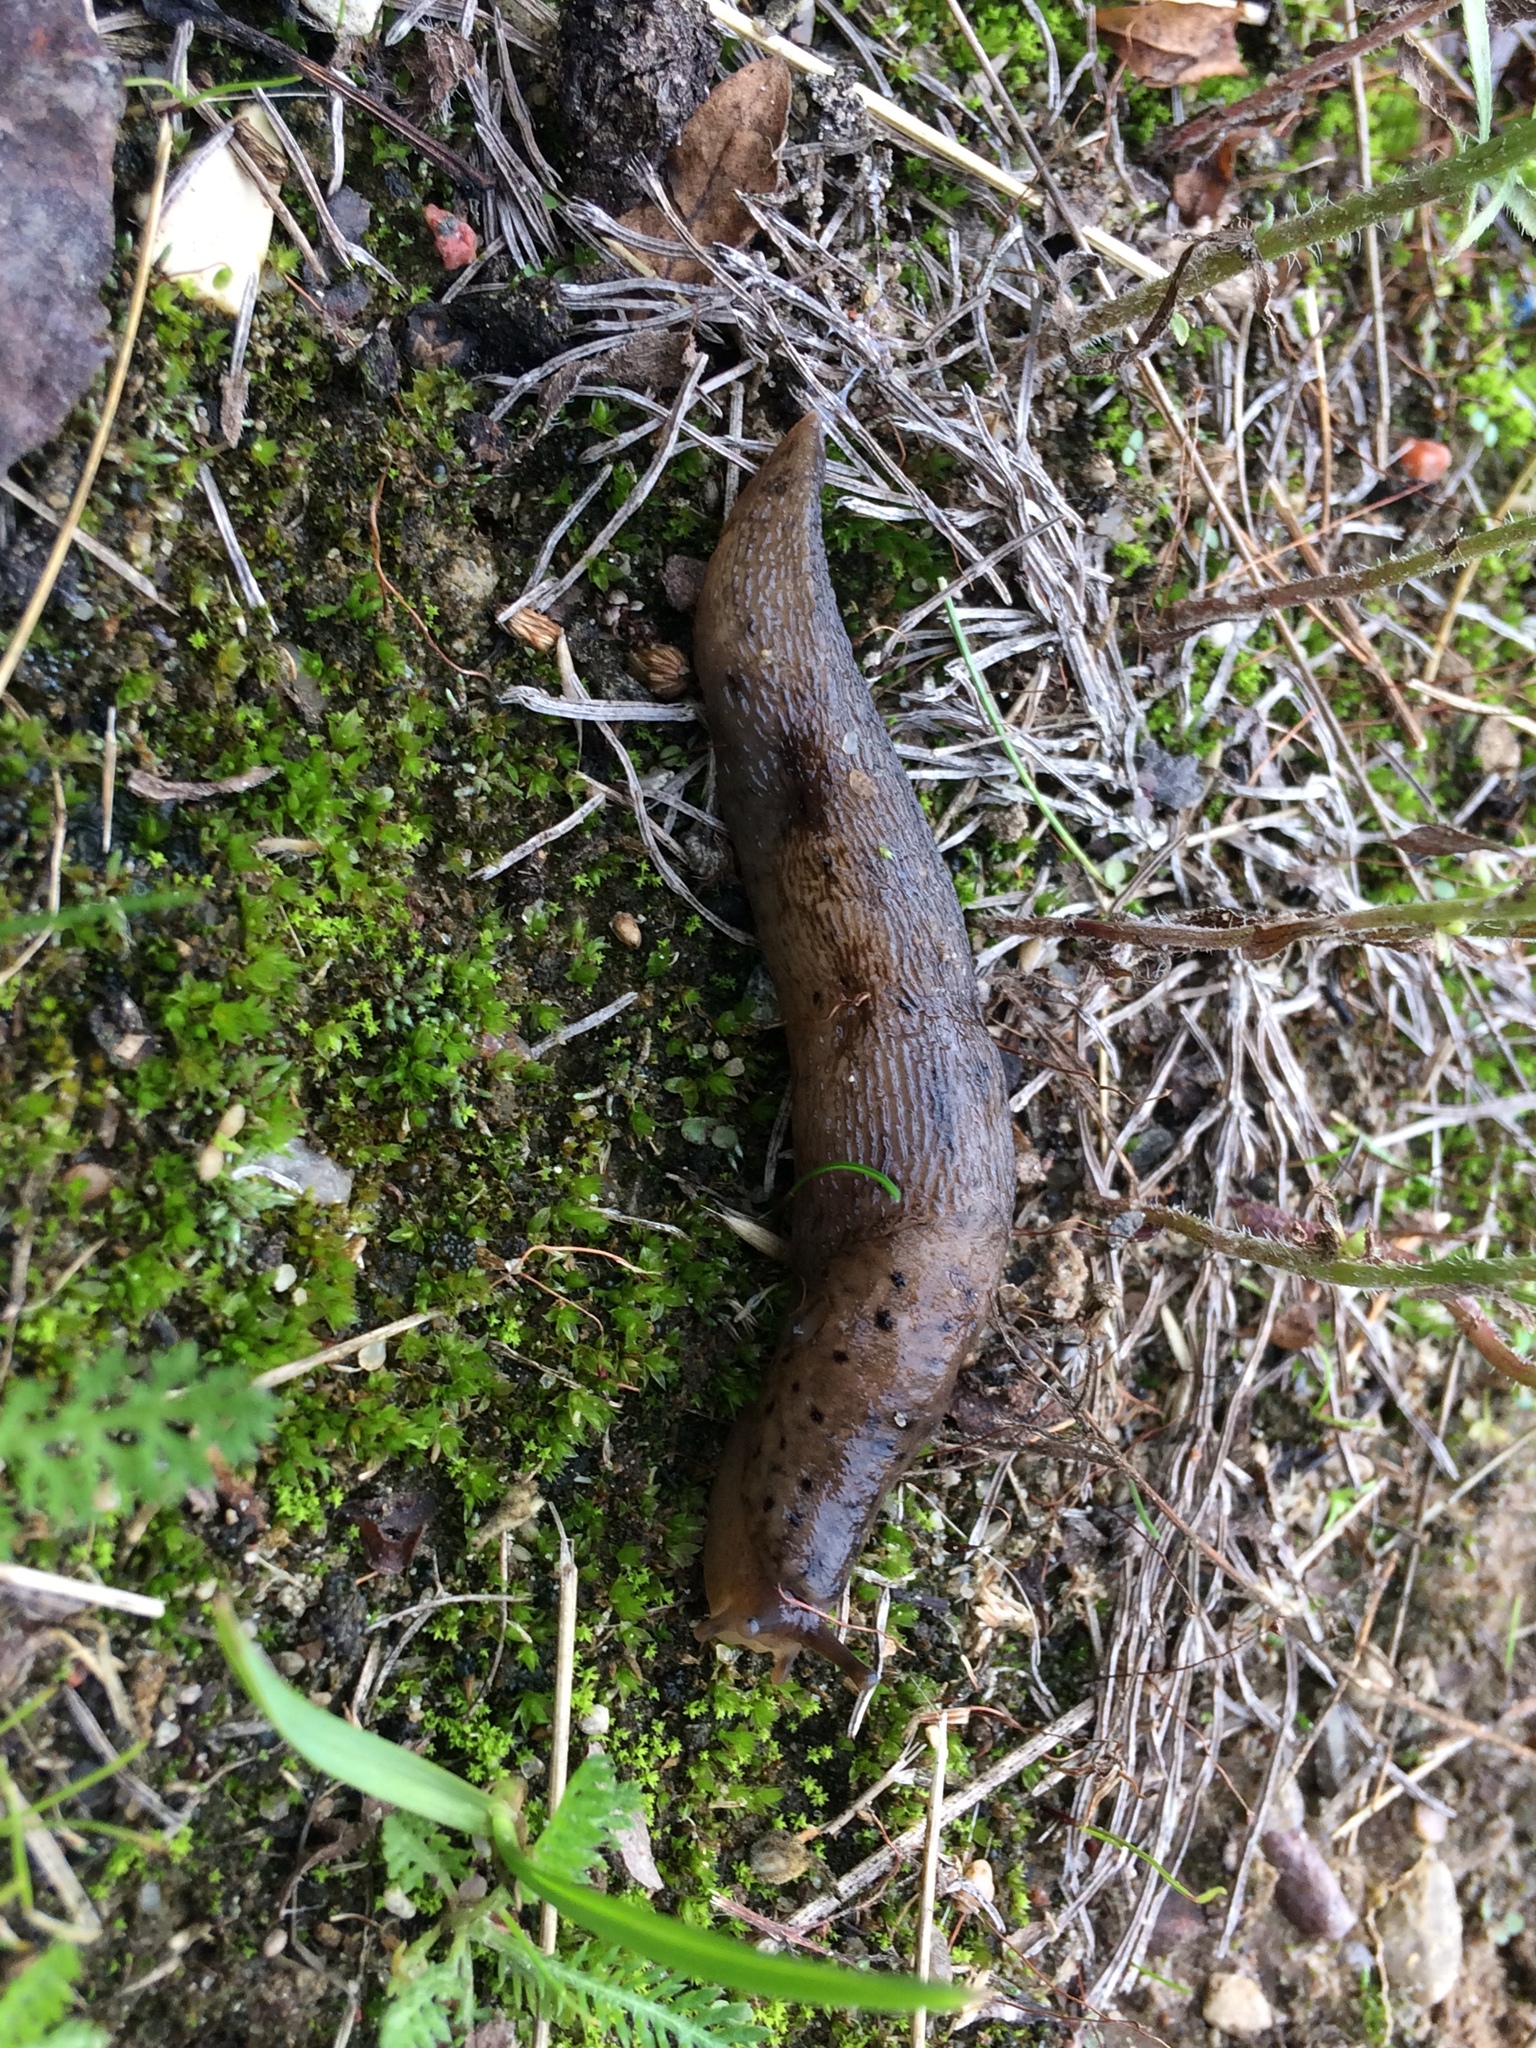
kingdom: Animalia
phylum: Mollusca
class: Gastropoda
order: Stylommatophora
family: Limacidae
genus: Limax
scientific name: Limax maximus
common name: Great grey slug
